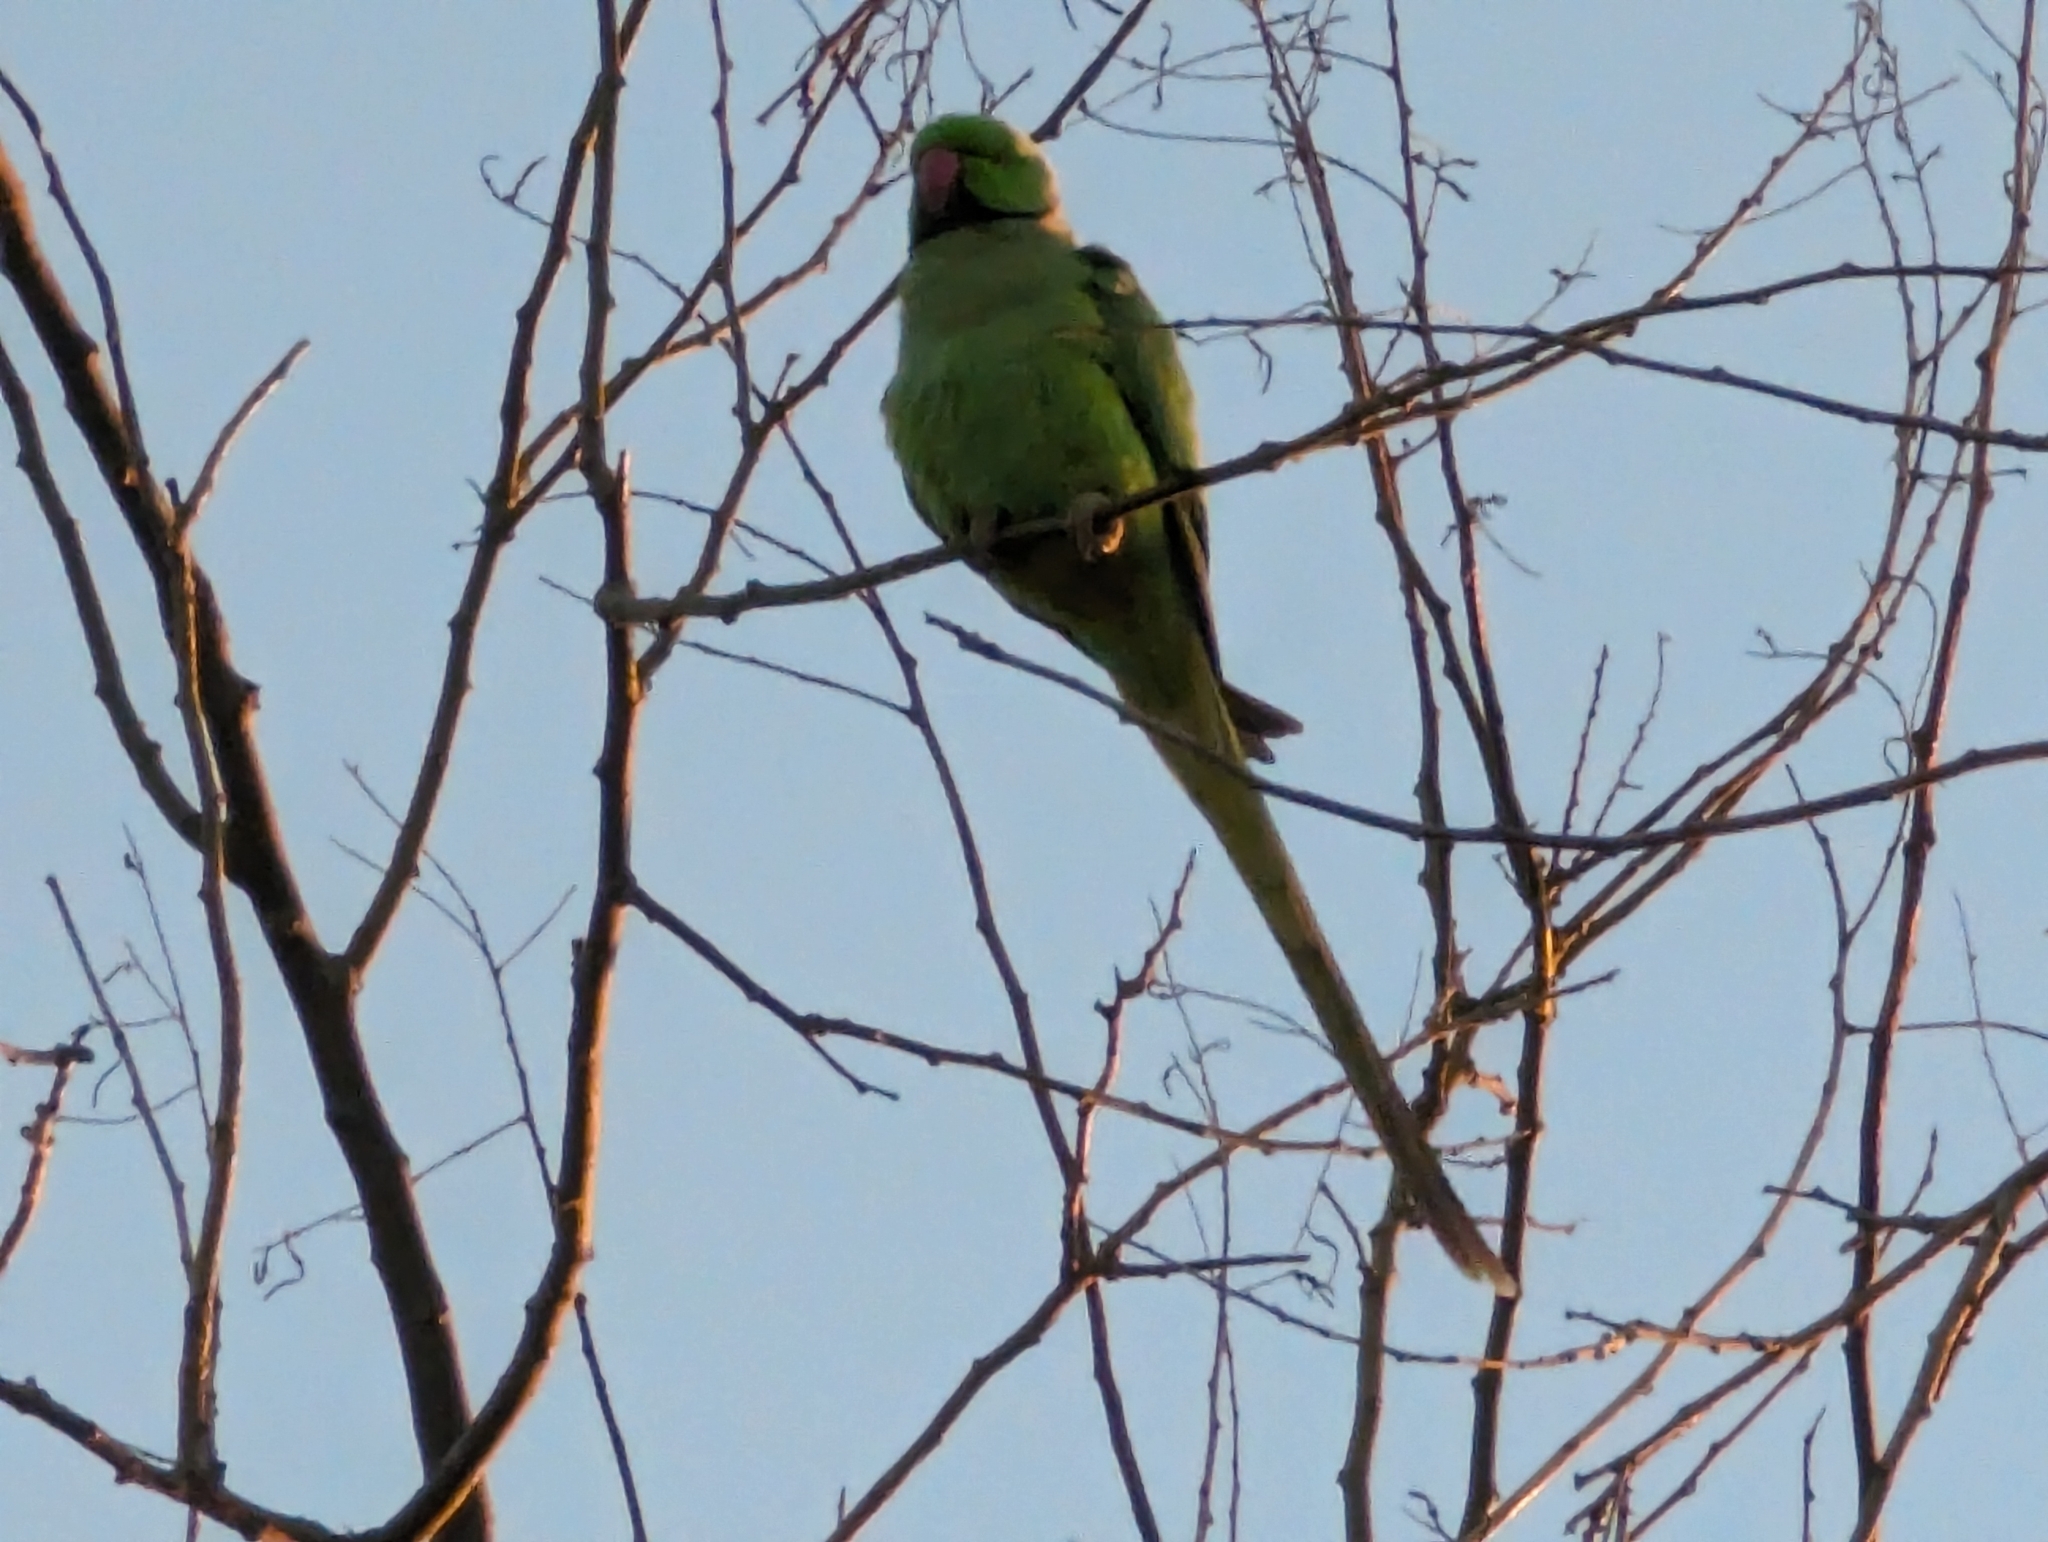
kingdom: Animalia
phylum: Chordata
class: Aves
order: Psittaciformes
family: Psittacidae
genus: Psittacula
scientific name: Psittacula krameri
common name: Rose-ringed parakeet
